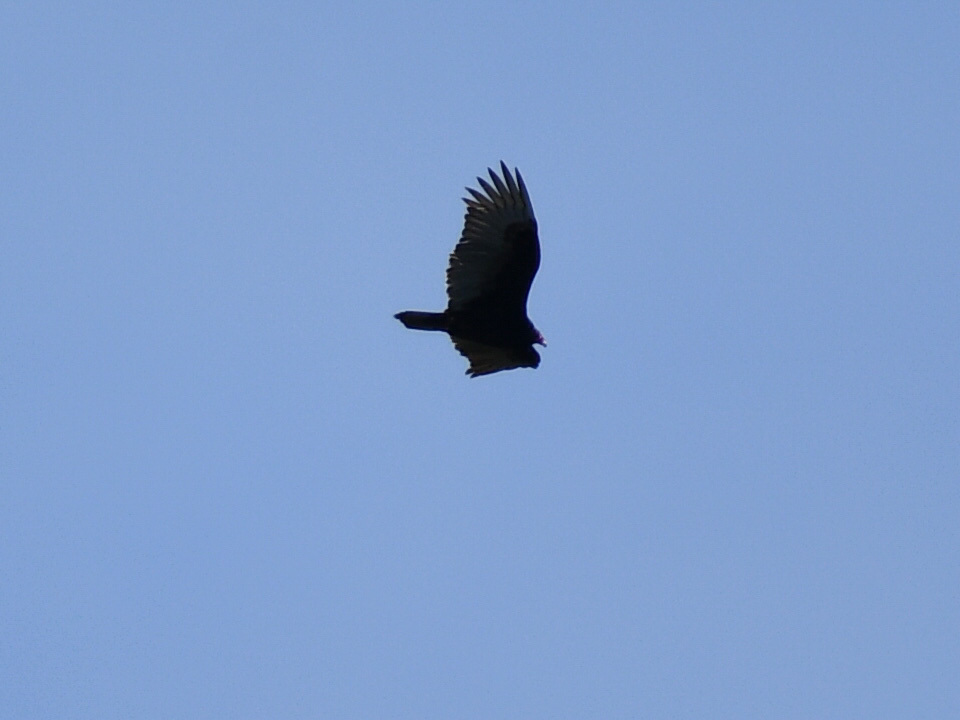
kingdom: Animalia
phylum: Chordata
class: Aves
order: Accipitriformes
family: Cathartidae
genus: Cathartes
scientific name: Cathartes aura
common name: Turkey vulture
